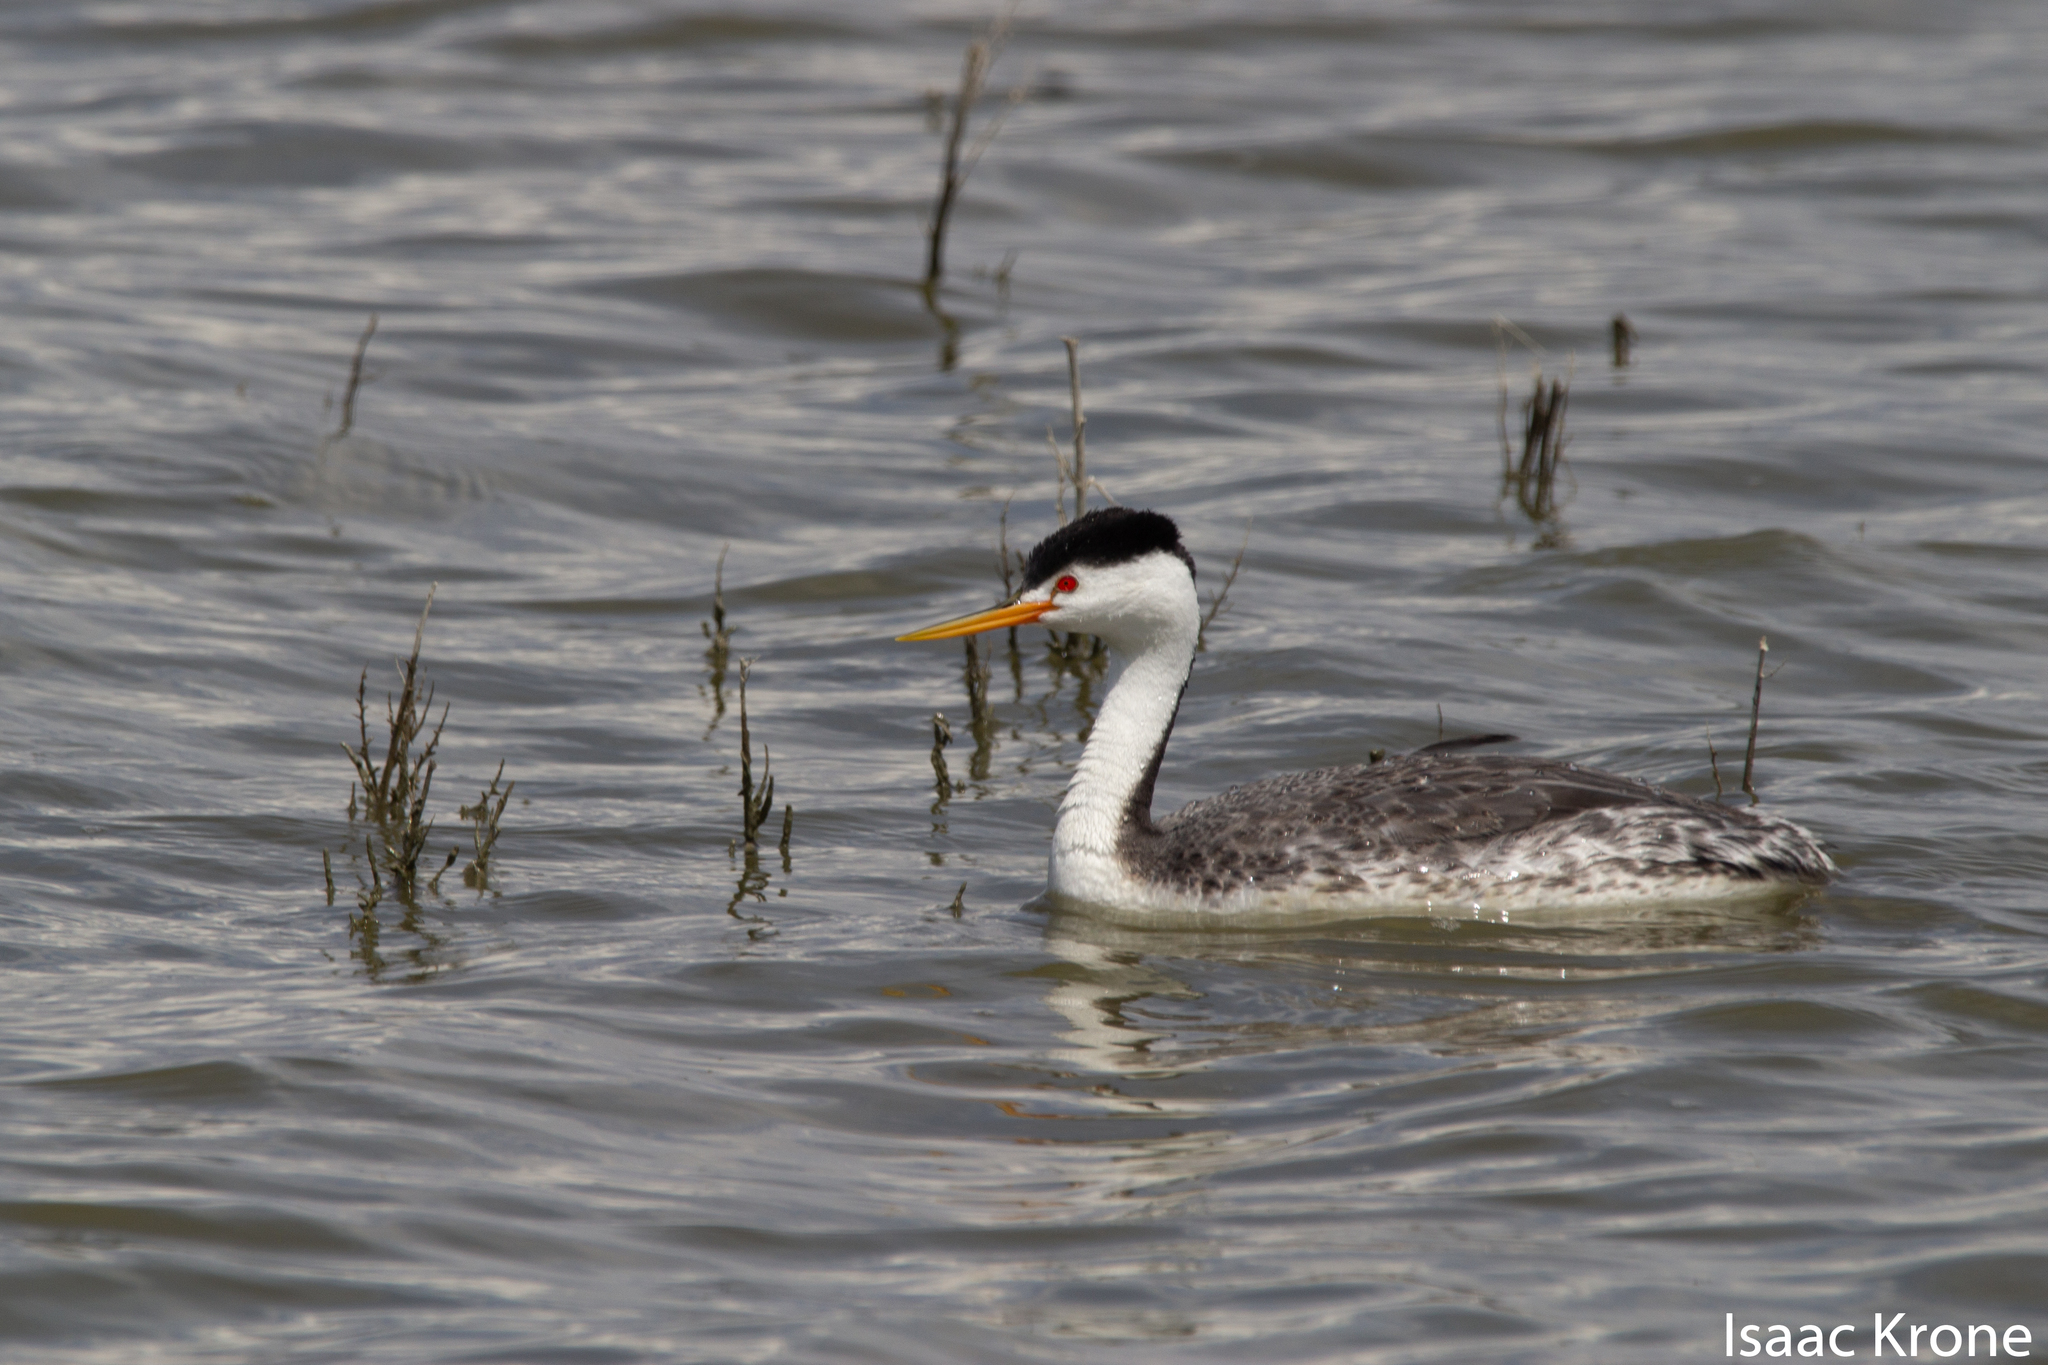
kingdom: Animalia
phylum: Chordata
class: Aves
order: Podicipediformes
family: Podicipedidae
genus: Aechmophorus
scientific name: Aechmophorus clarkii
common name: Clark's grebe
